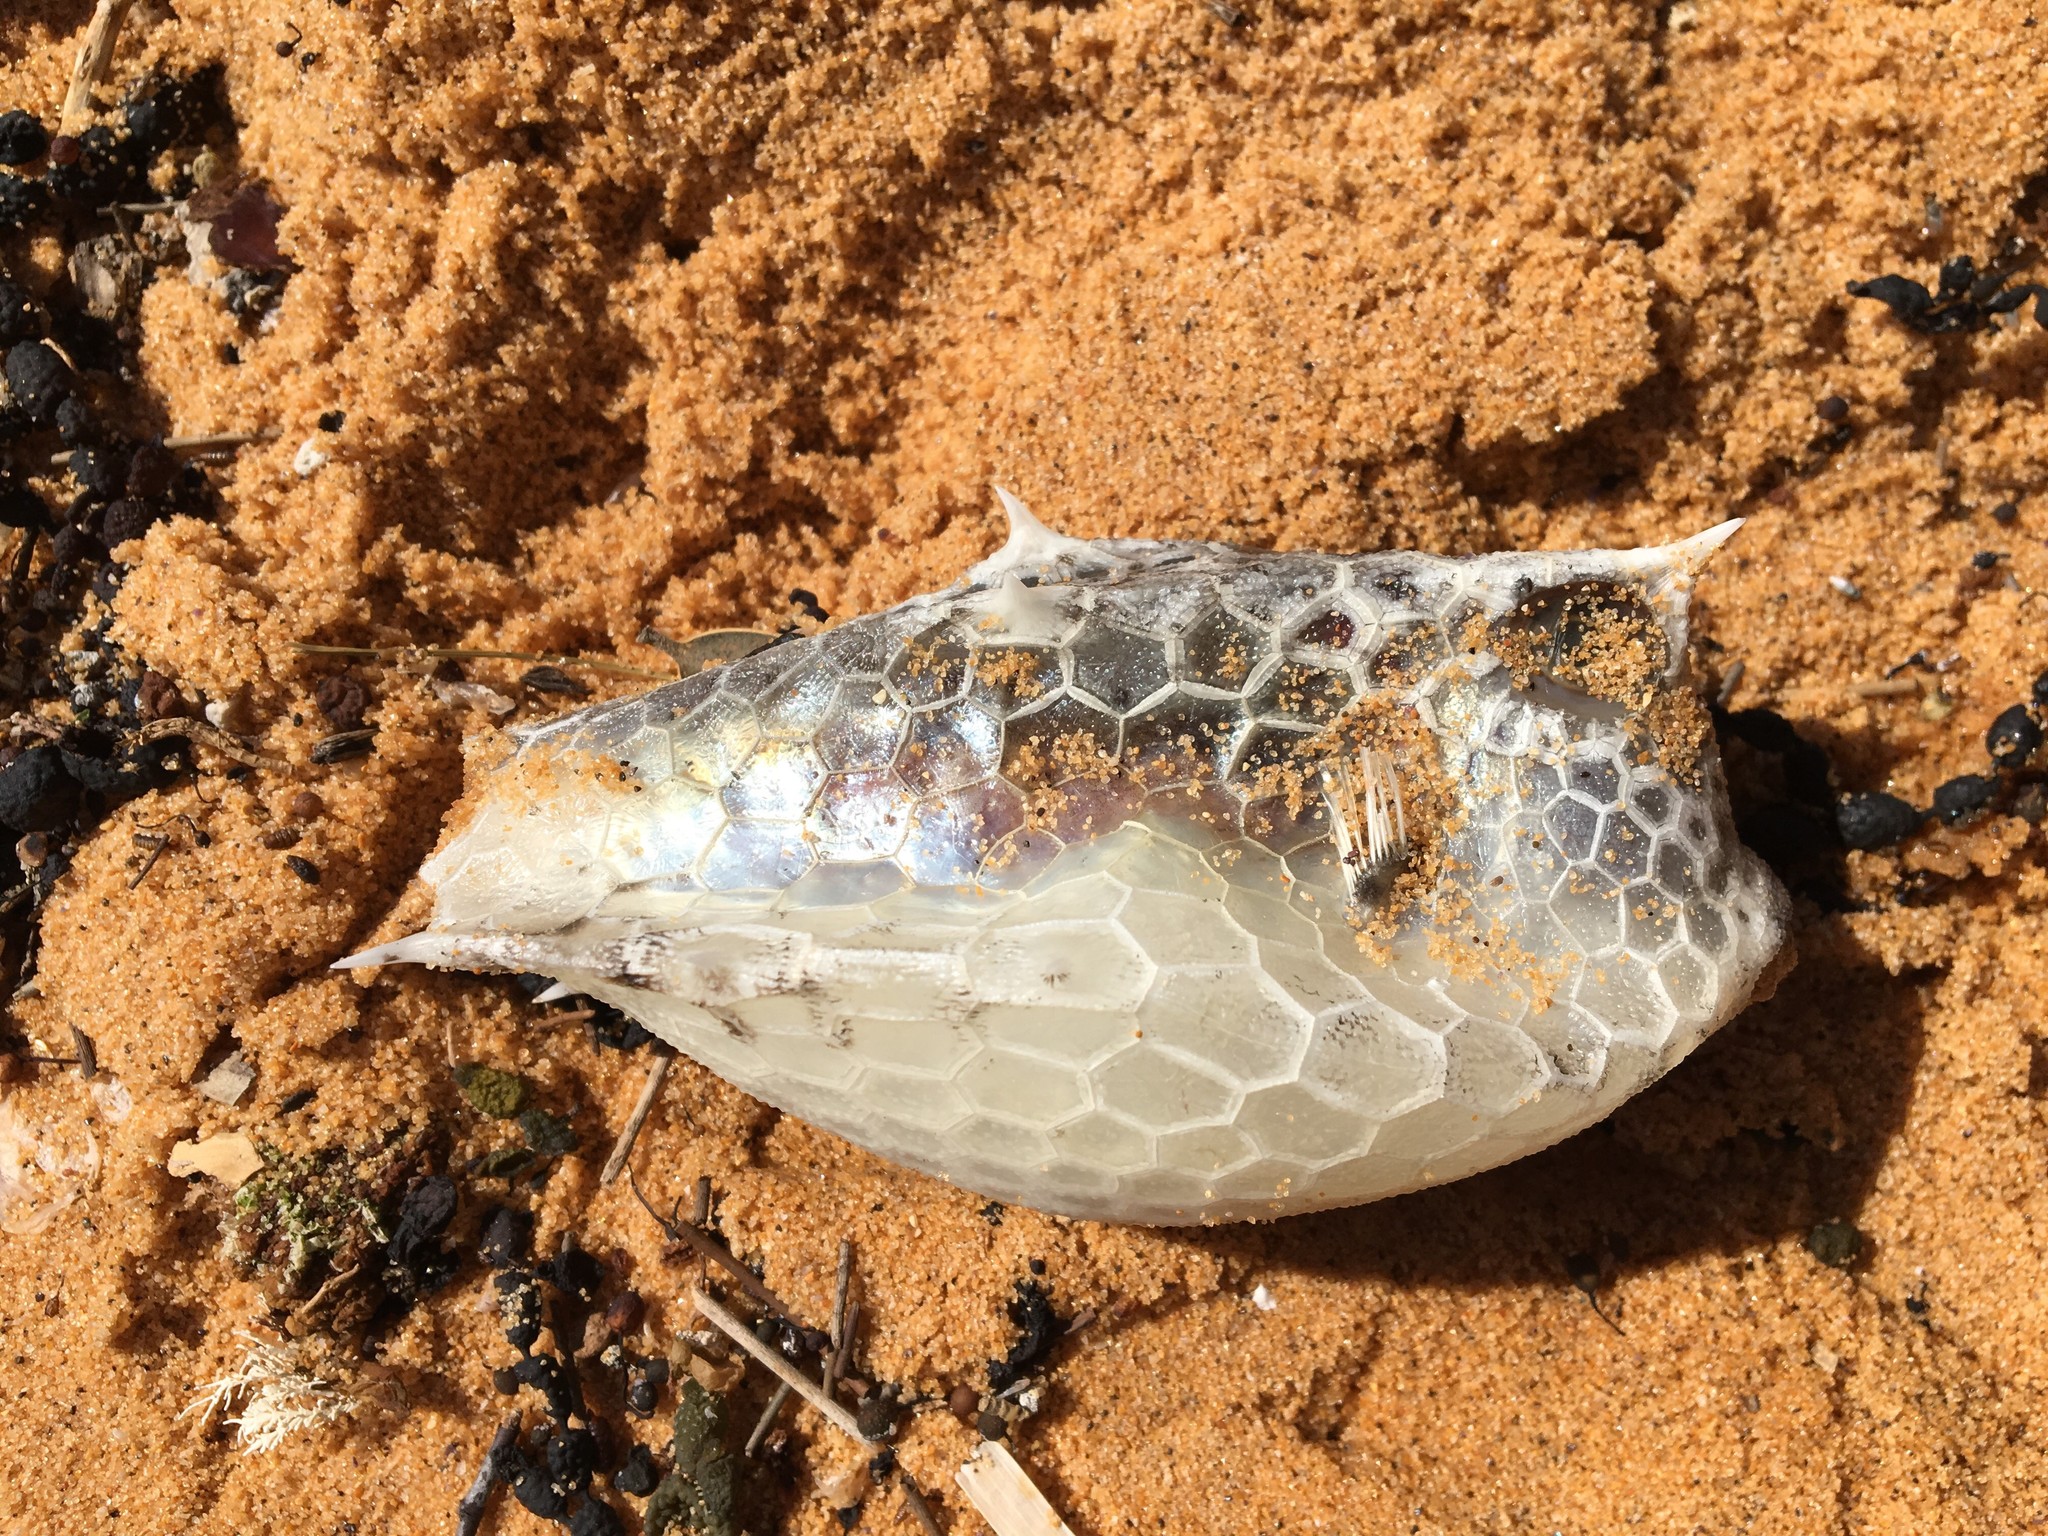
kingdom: Animalia
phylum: Chordata
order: Tetraodontiformes
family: Ostraciidae
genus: Lactoria
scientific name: Lactoria diaphana
